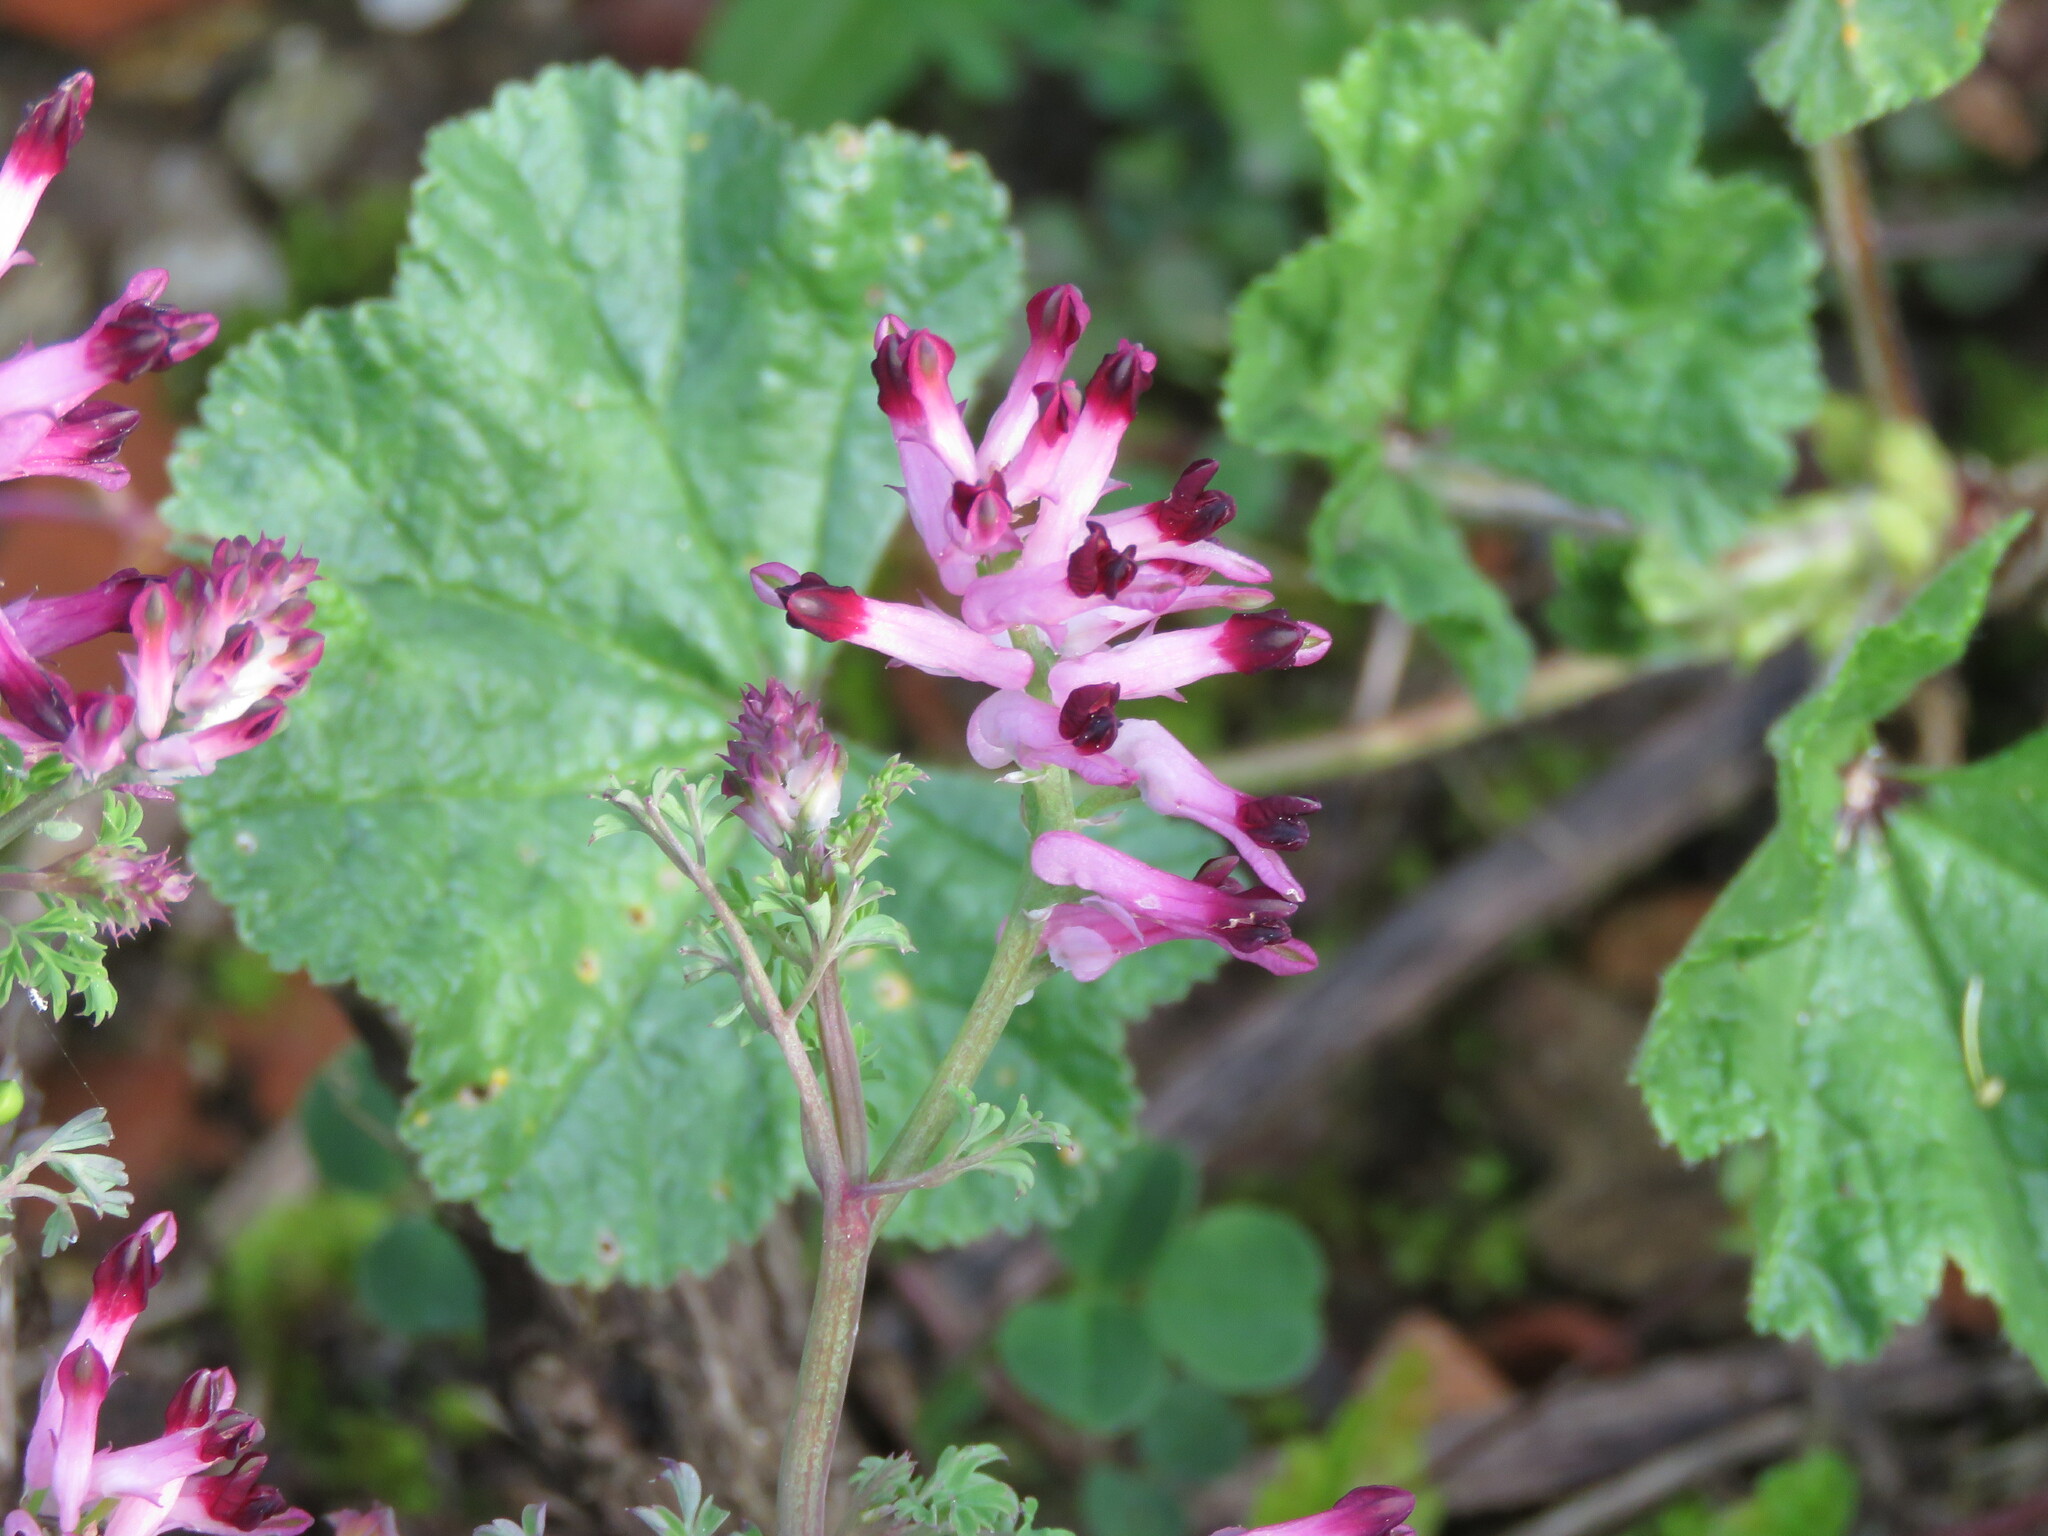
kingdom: Plantae
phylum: Tracheophyta
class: Magnoliopsida
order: Ranunculales
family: Papaveraceae
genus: Fumaria
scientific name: Fumaria muralis
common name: Common ramping-fumitory
